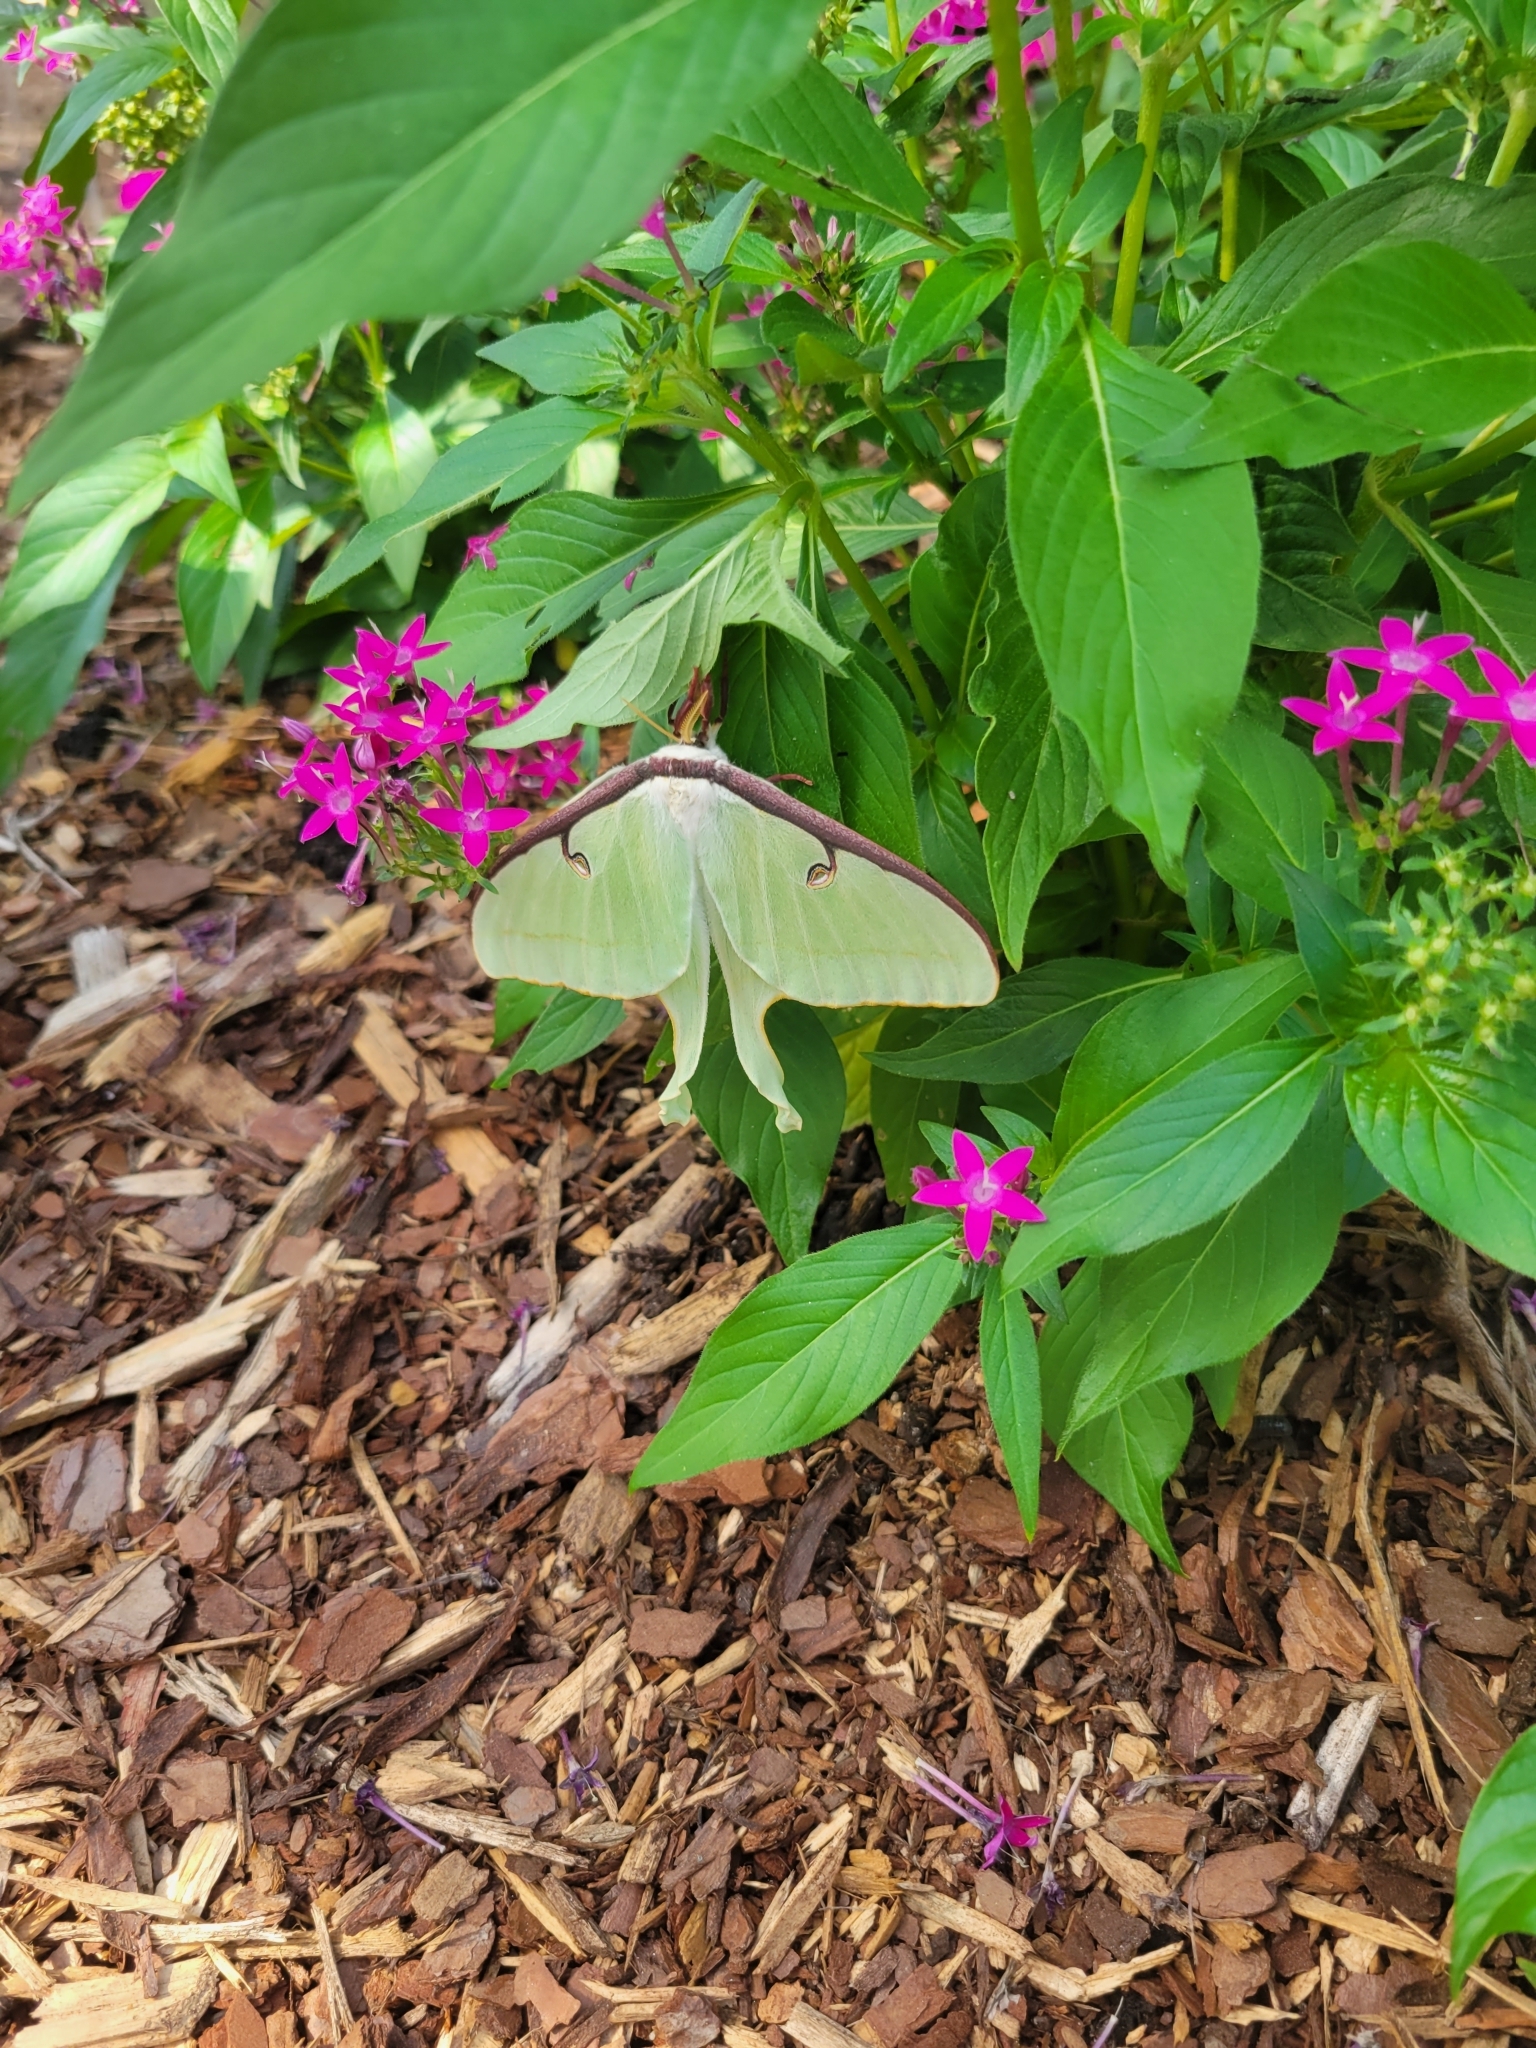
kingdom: Animalia
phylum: Arthropoda
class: Insecta
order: Lepidoptera
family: Saturniidae
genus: Actias
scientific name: Actias luna
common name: Luna moth
